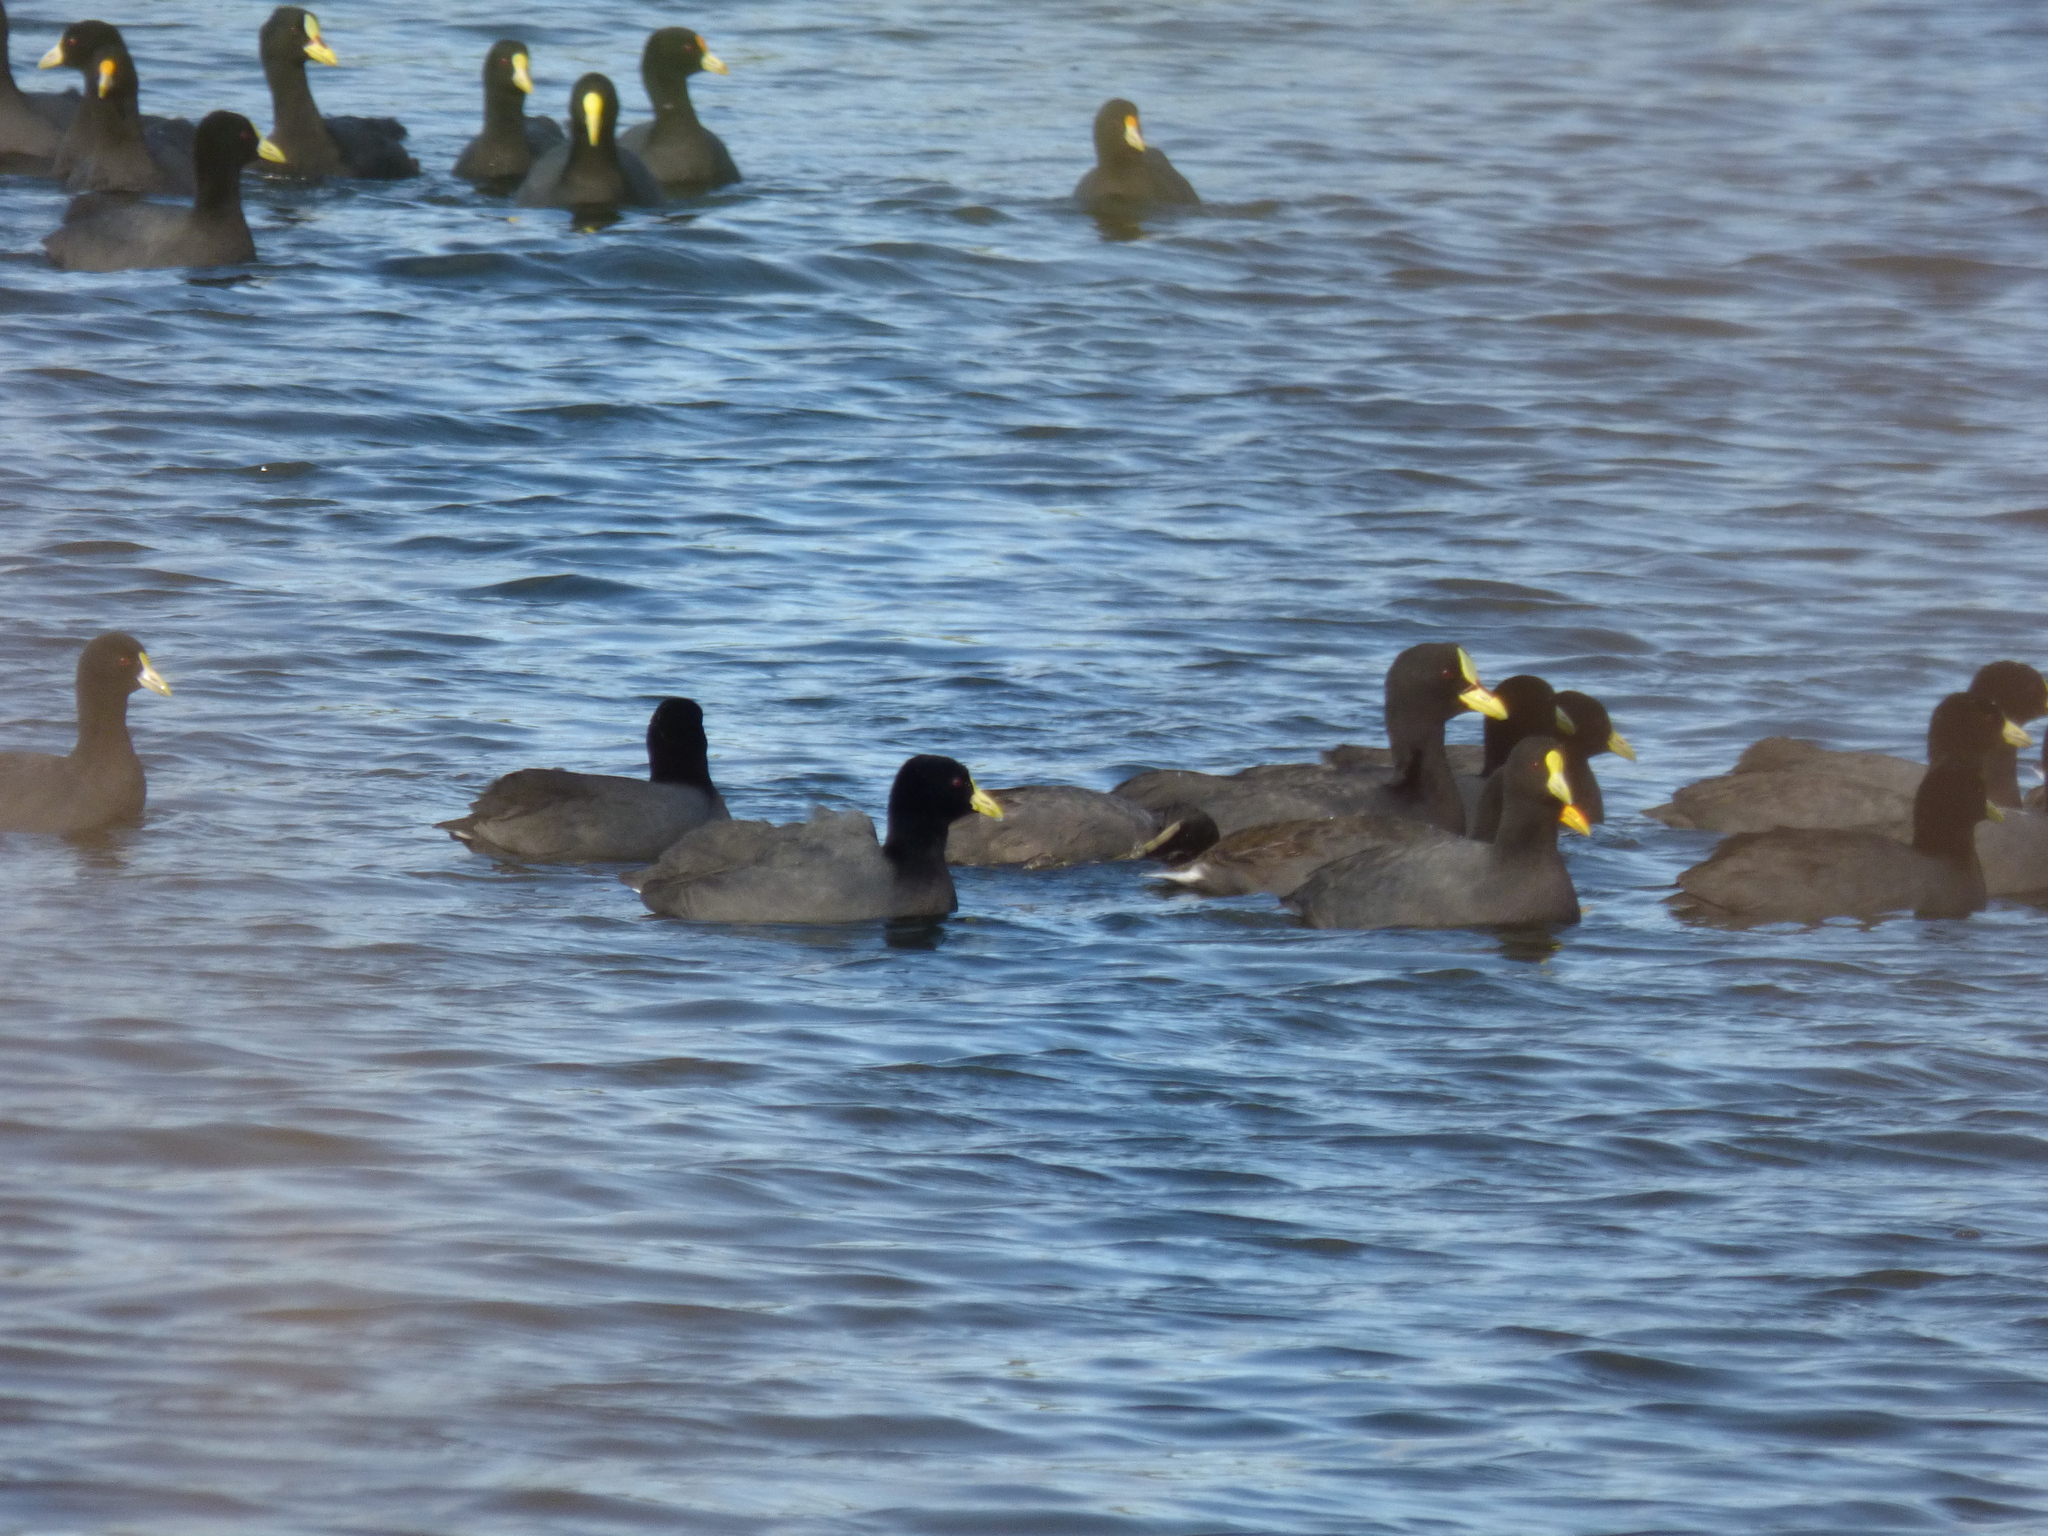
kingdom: Animalia
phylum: Chordata
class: Aves
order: Gruiformes
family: Rallidae
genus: Fulica
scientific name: Fulica armillata
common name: Red-gartered coot
